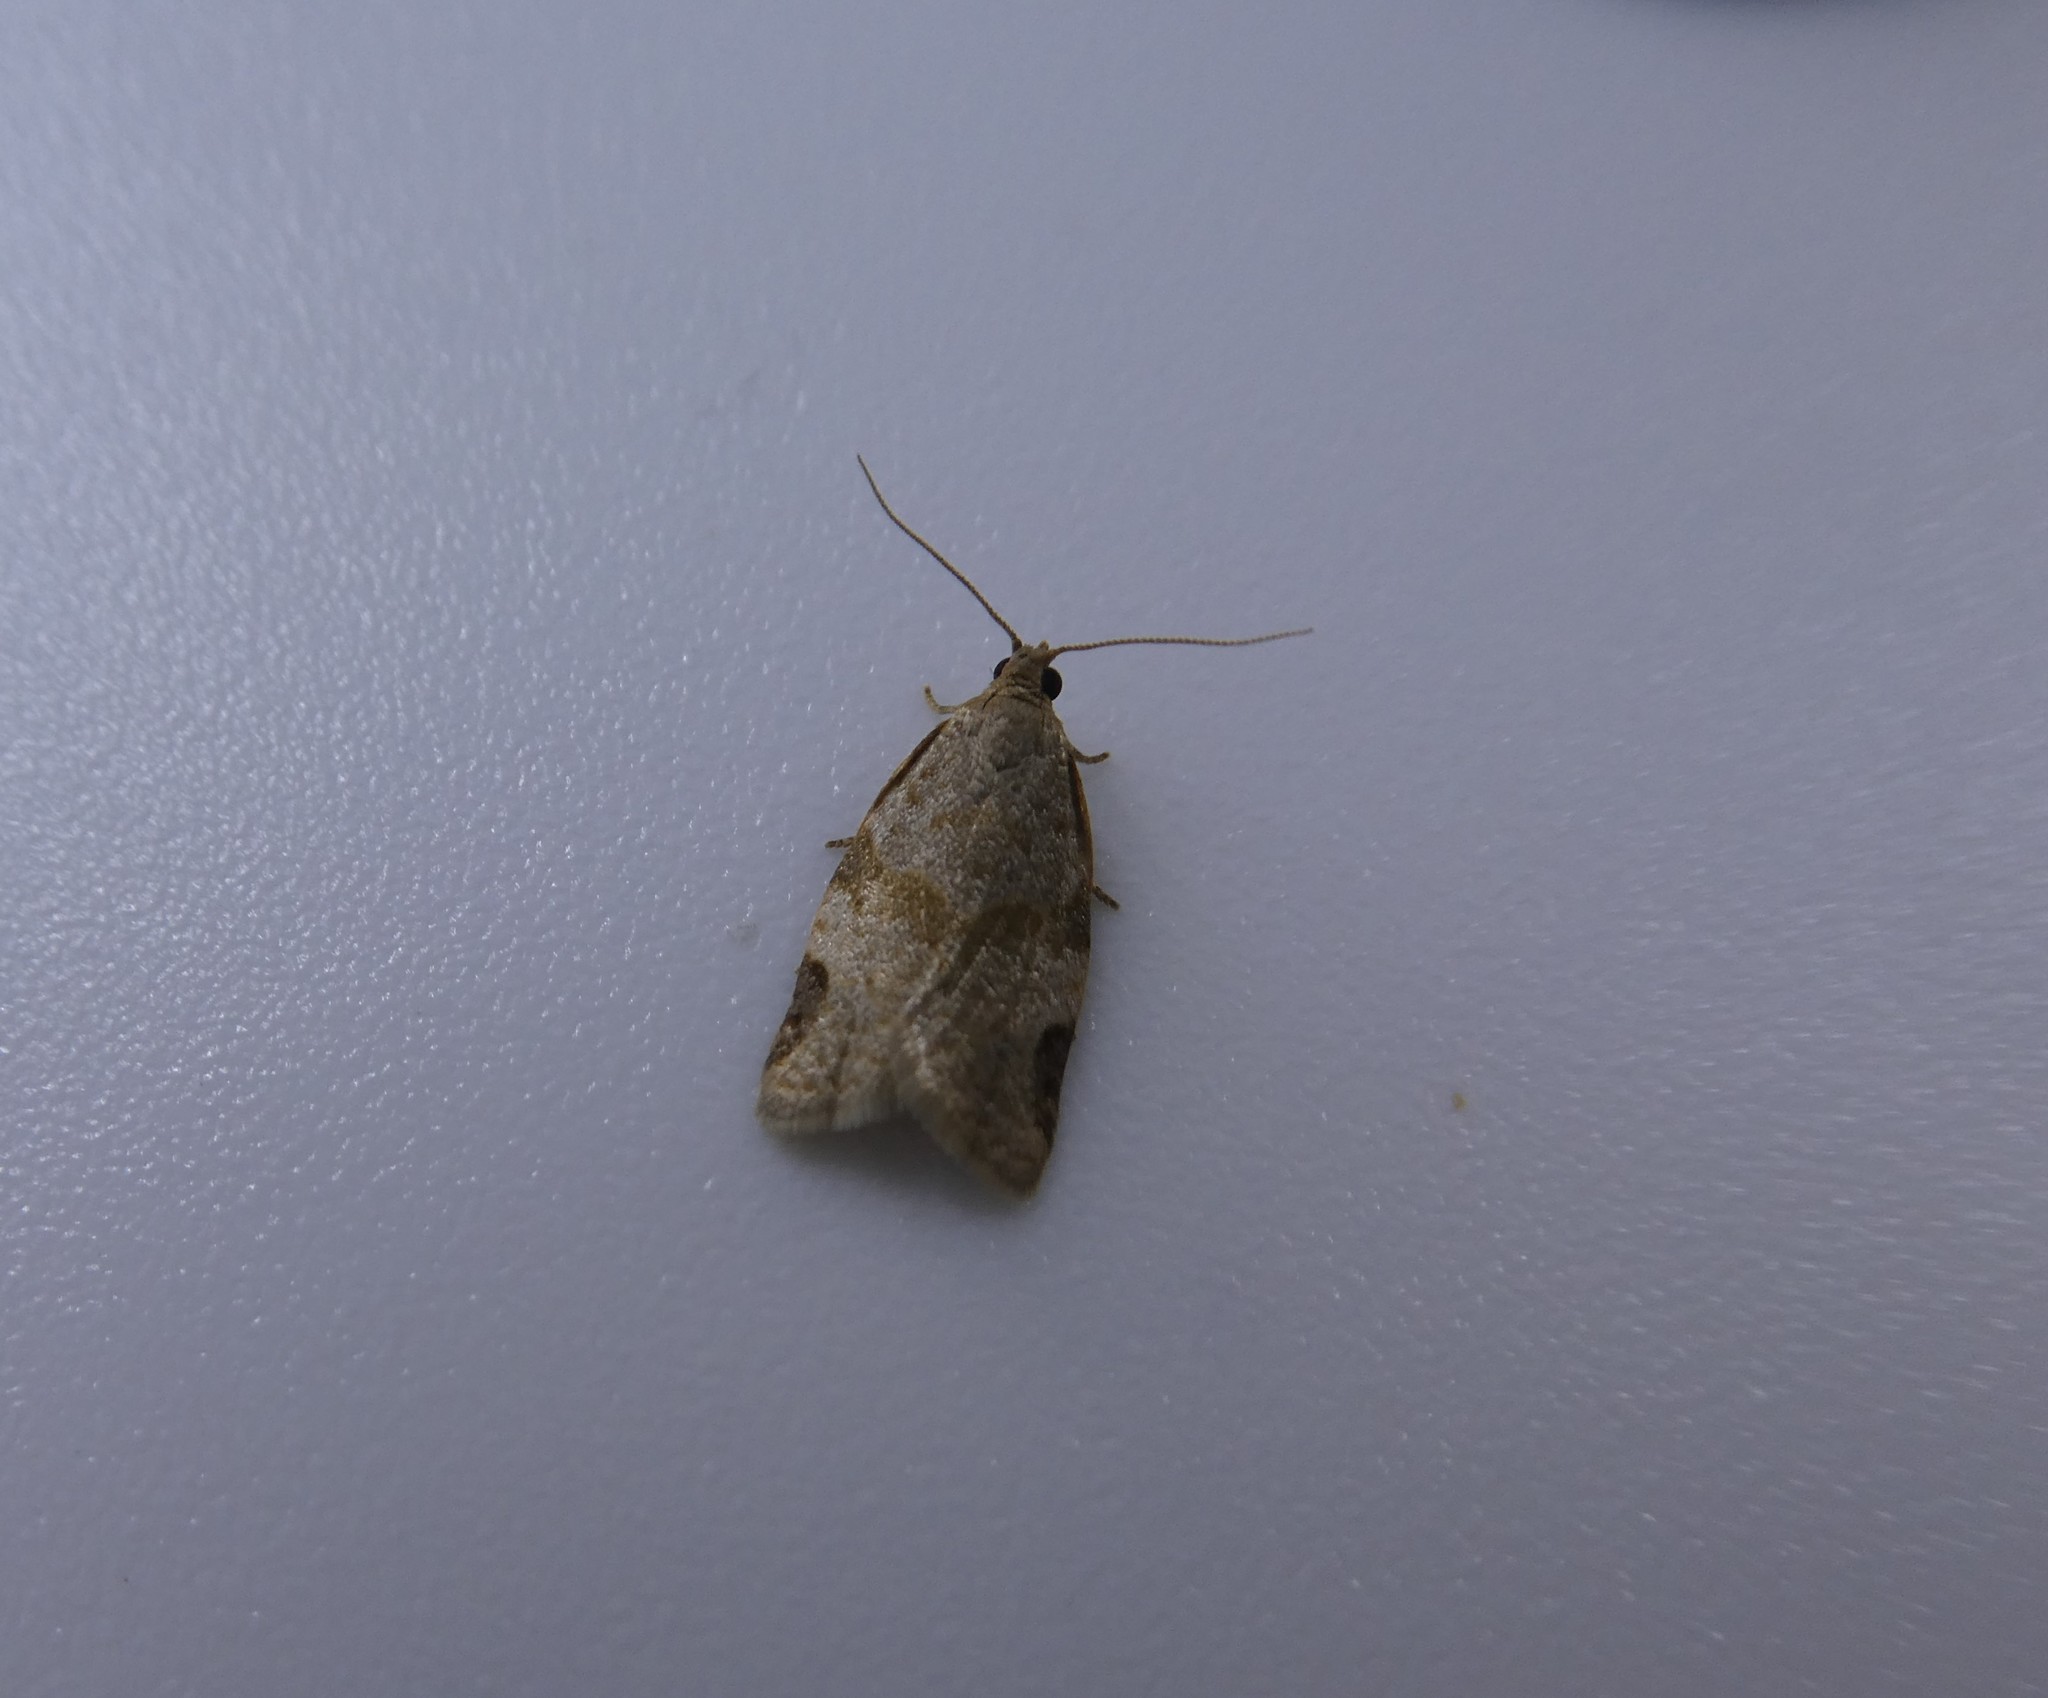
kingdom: Animalia
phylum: Arthropoda
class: Insecta
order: Lepidoptera
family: Tortricidae
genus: Clepsis
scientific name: Clepsis virescana
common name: Greenish apple moth
